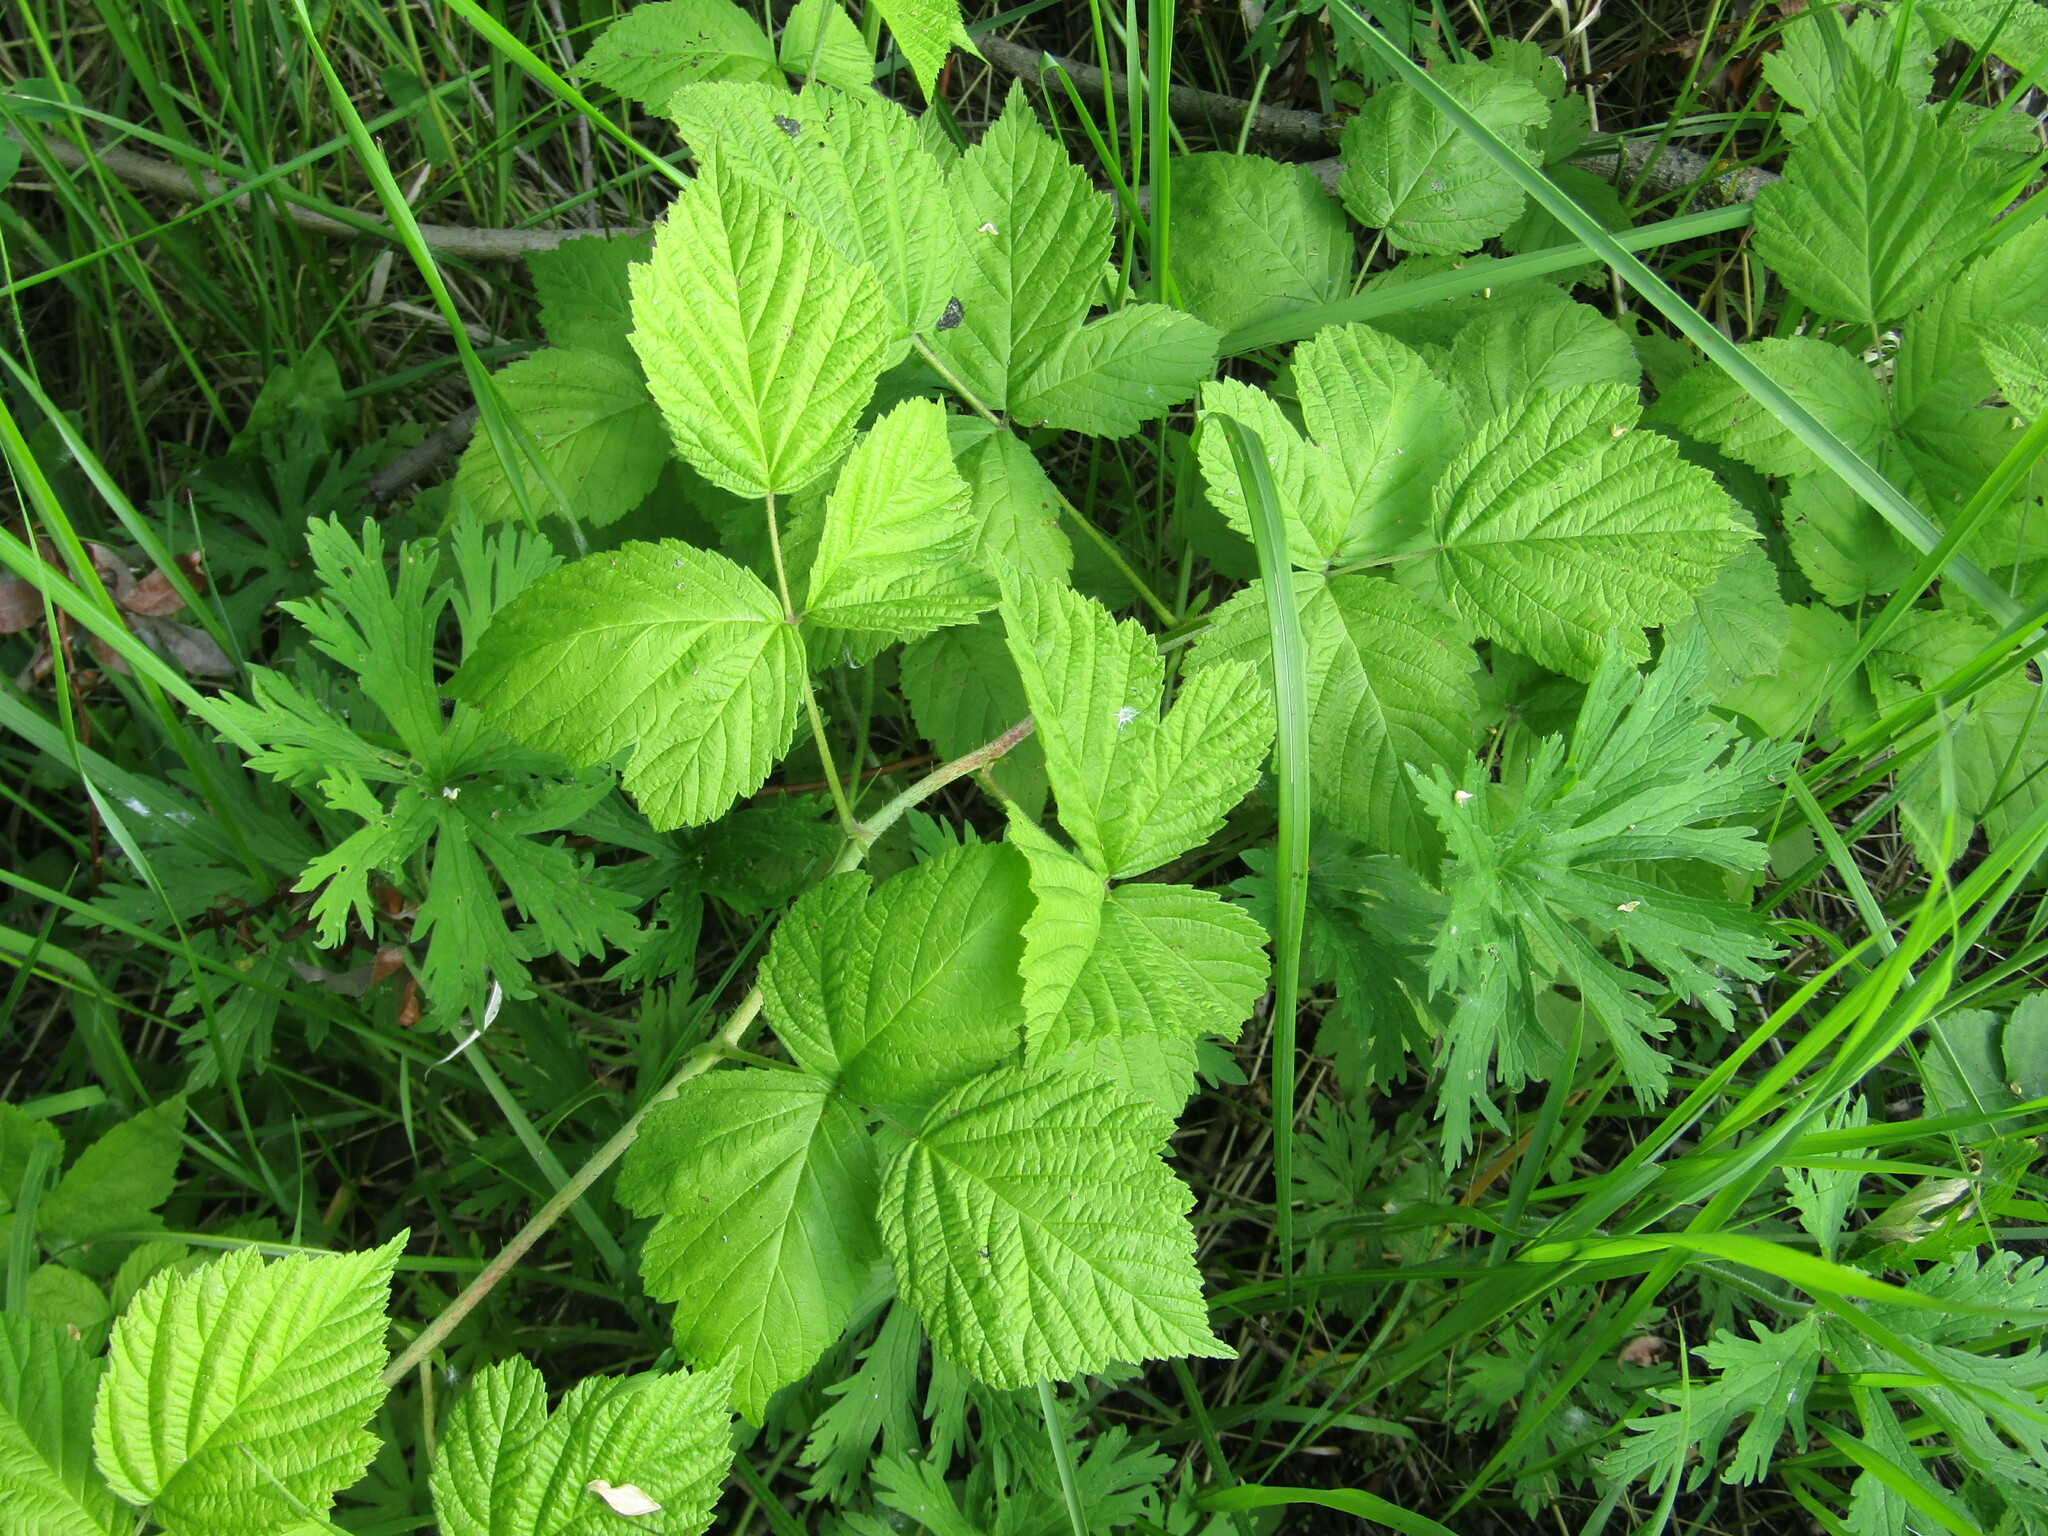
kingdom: Plantae
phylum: Tracheophyta
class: Magnoliopsida
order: Rosales
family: Rosaceae
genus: Rubus
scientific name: Rubus caesius
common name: Dewberry
